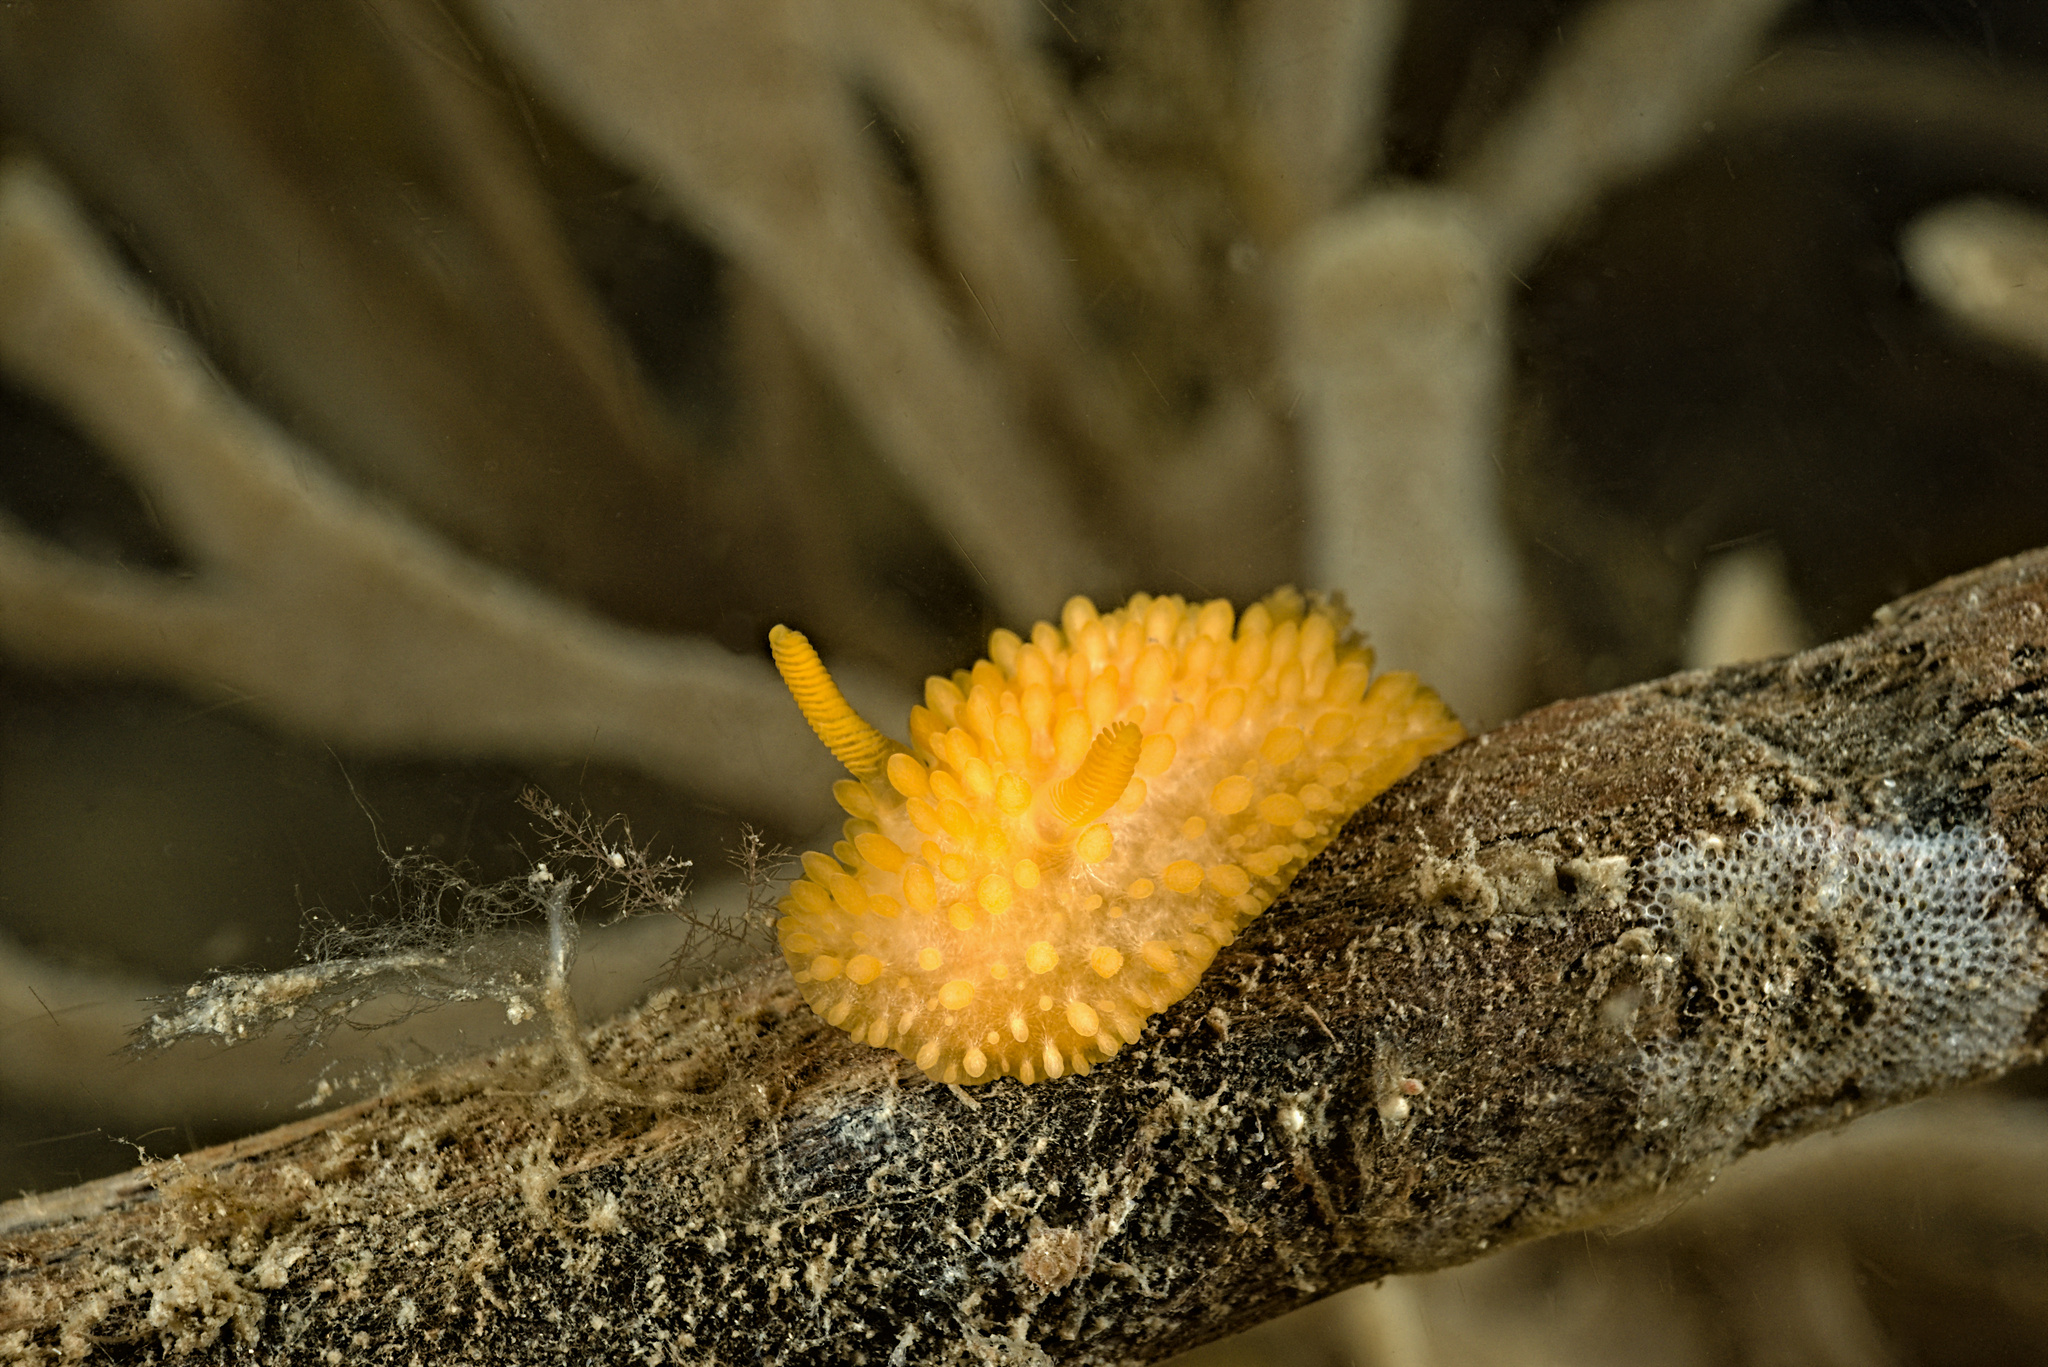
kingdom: Animalia
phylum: Mollusca
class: Gastropoda
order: Nudibranchia
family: Onchidorididae
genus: Adalaria
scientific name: Adalaria proxima
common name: False doris
